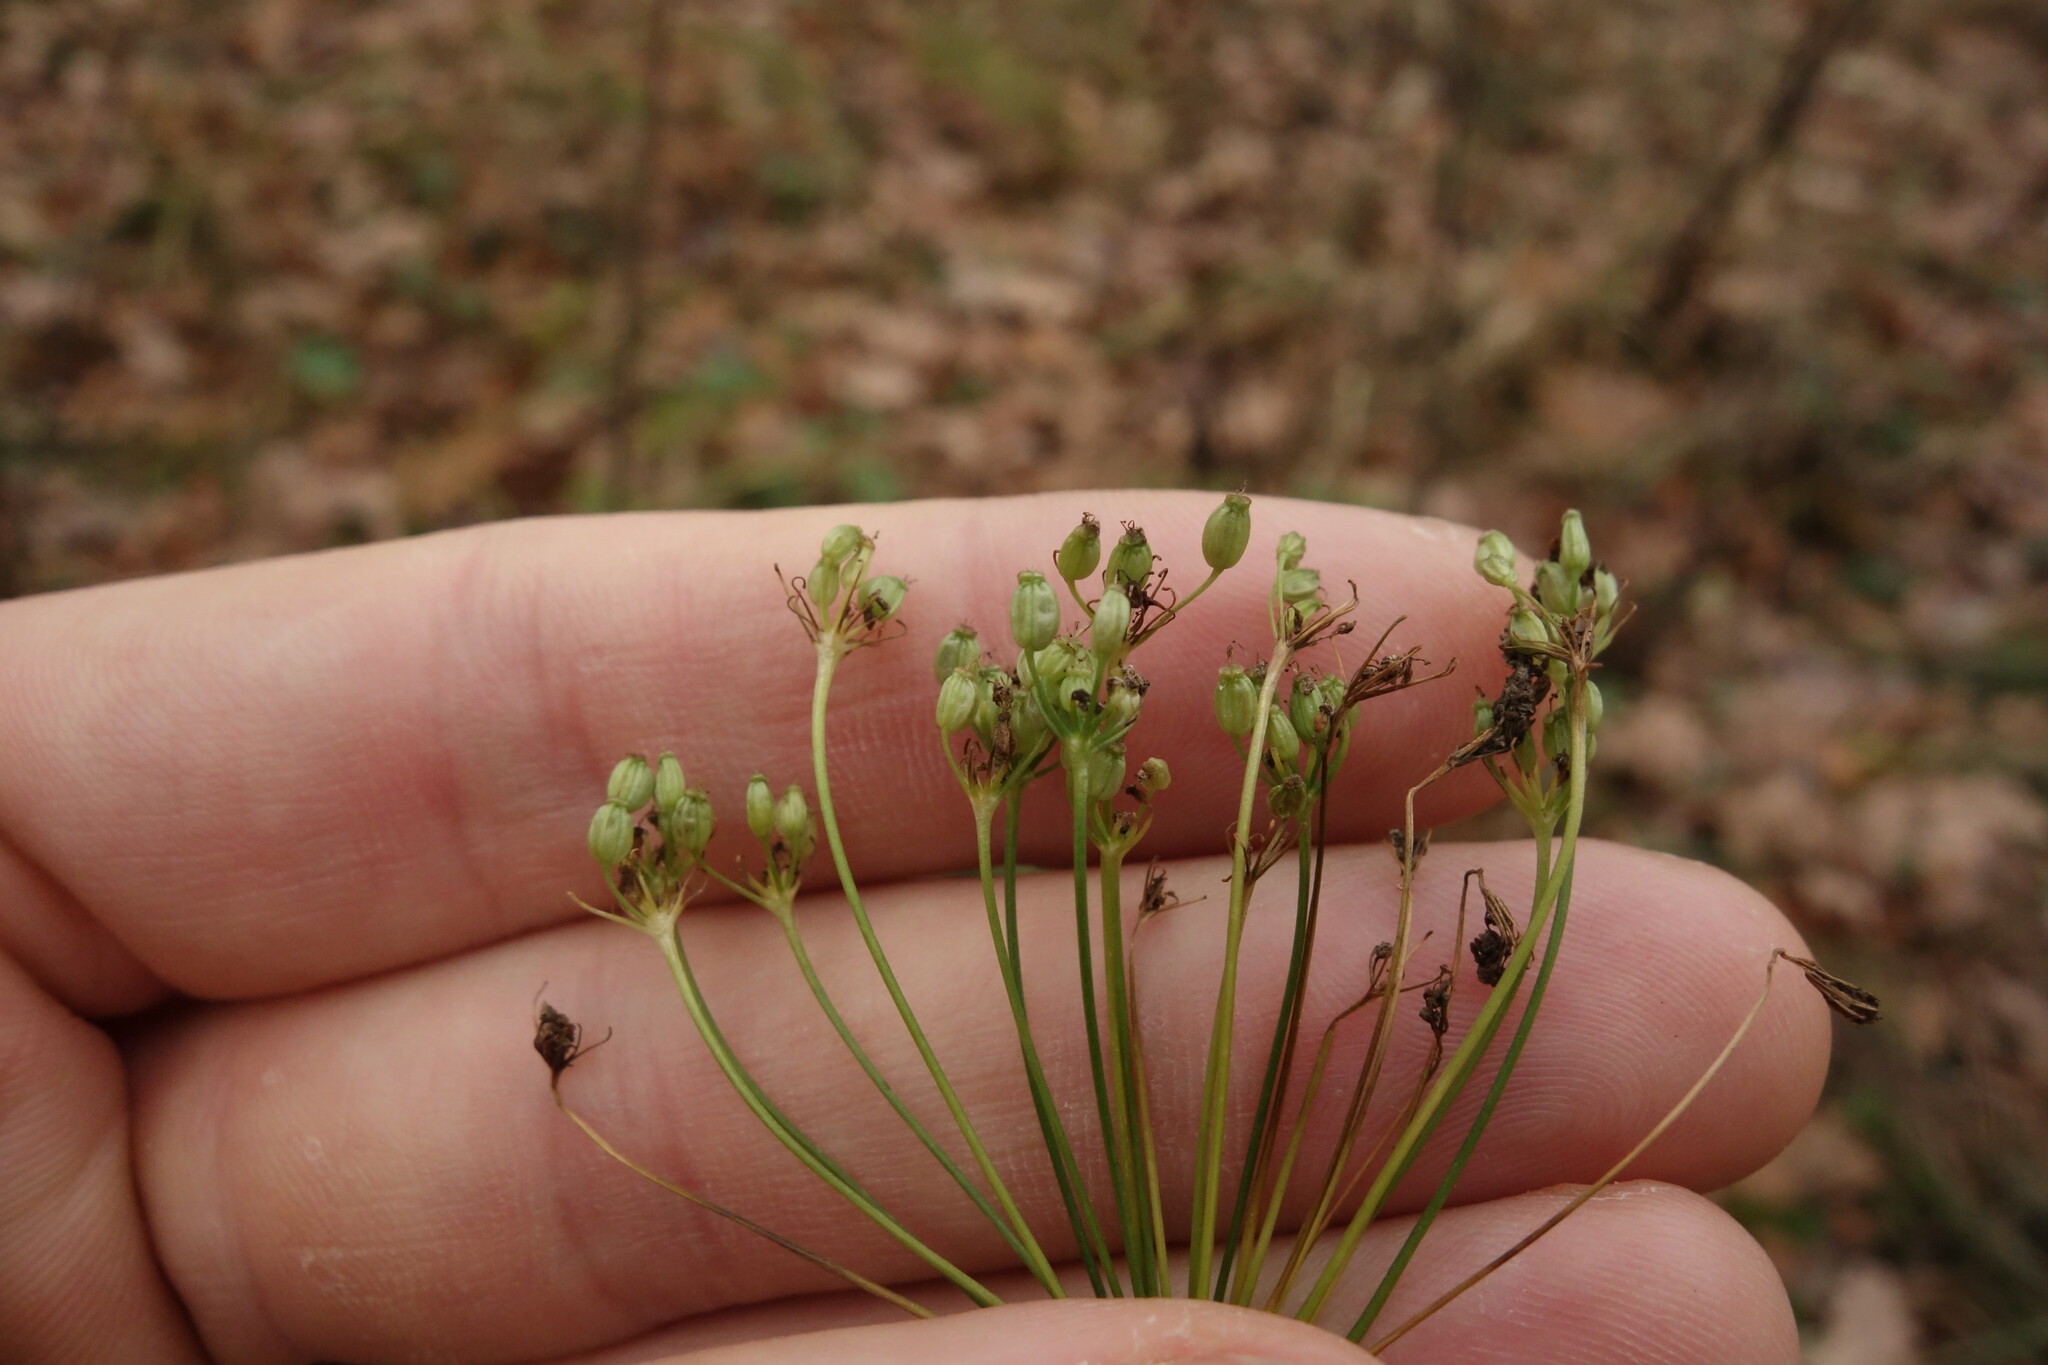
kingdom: Plantae
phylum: Tracheophyta
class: Magnoliopsida
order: Apiales
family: Apiaceae
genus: Pimpinella
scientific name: Pimpinella saxifraga
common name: Burnet-saxifrage
